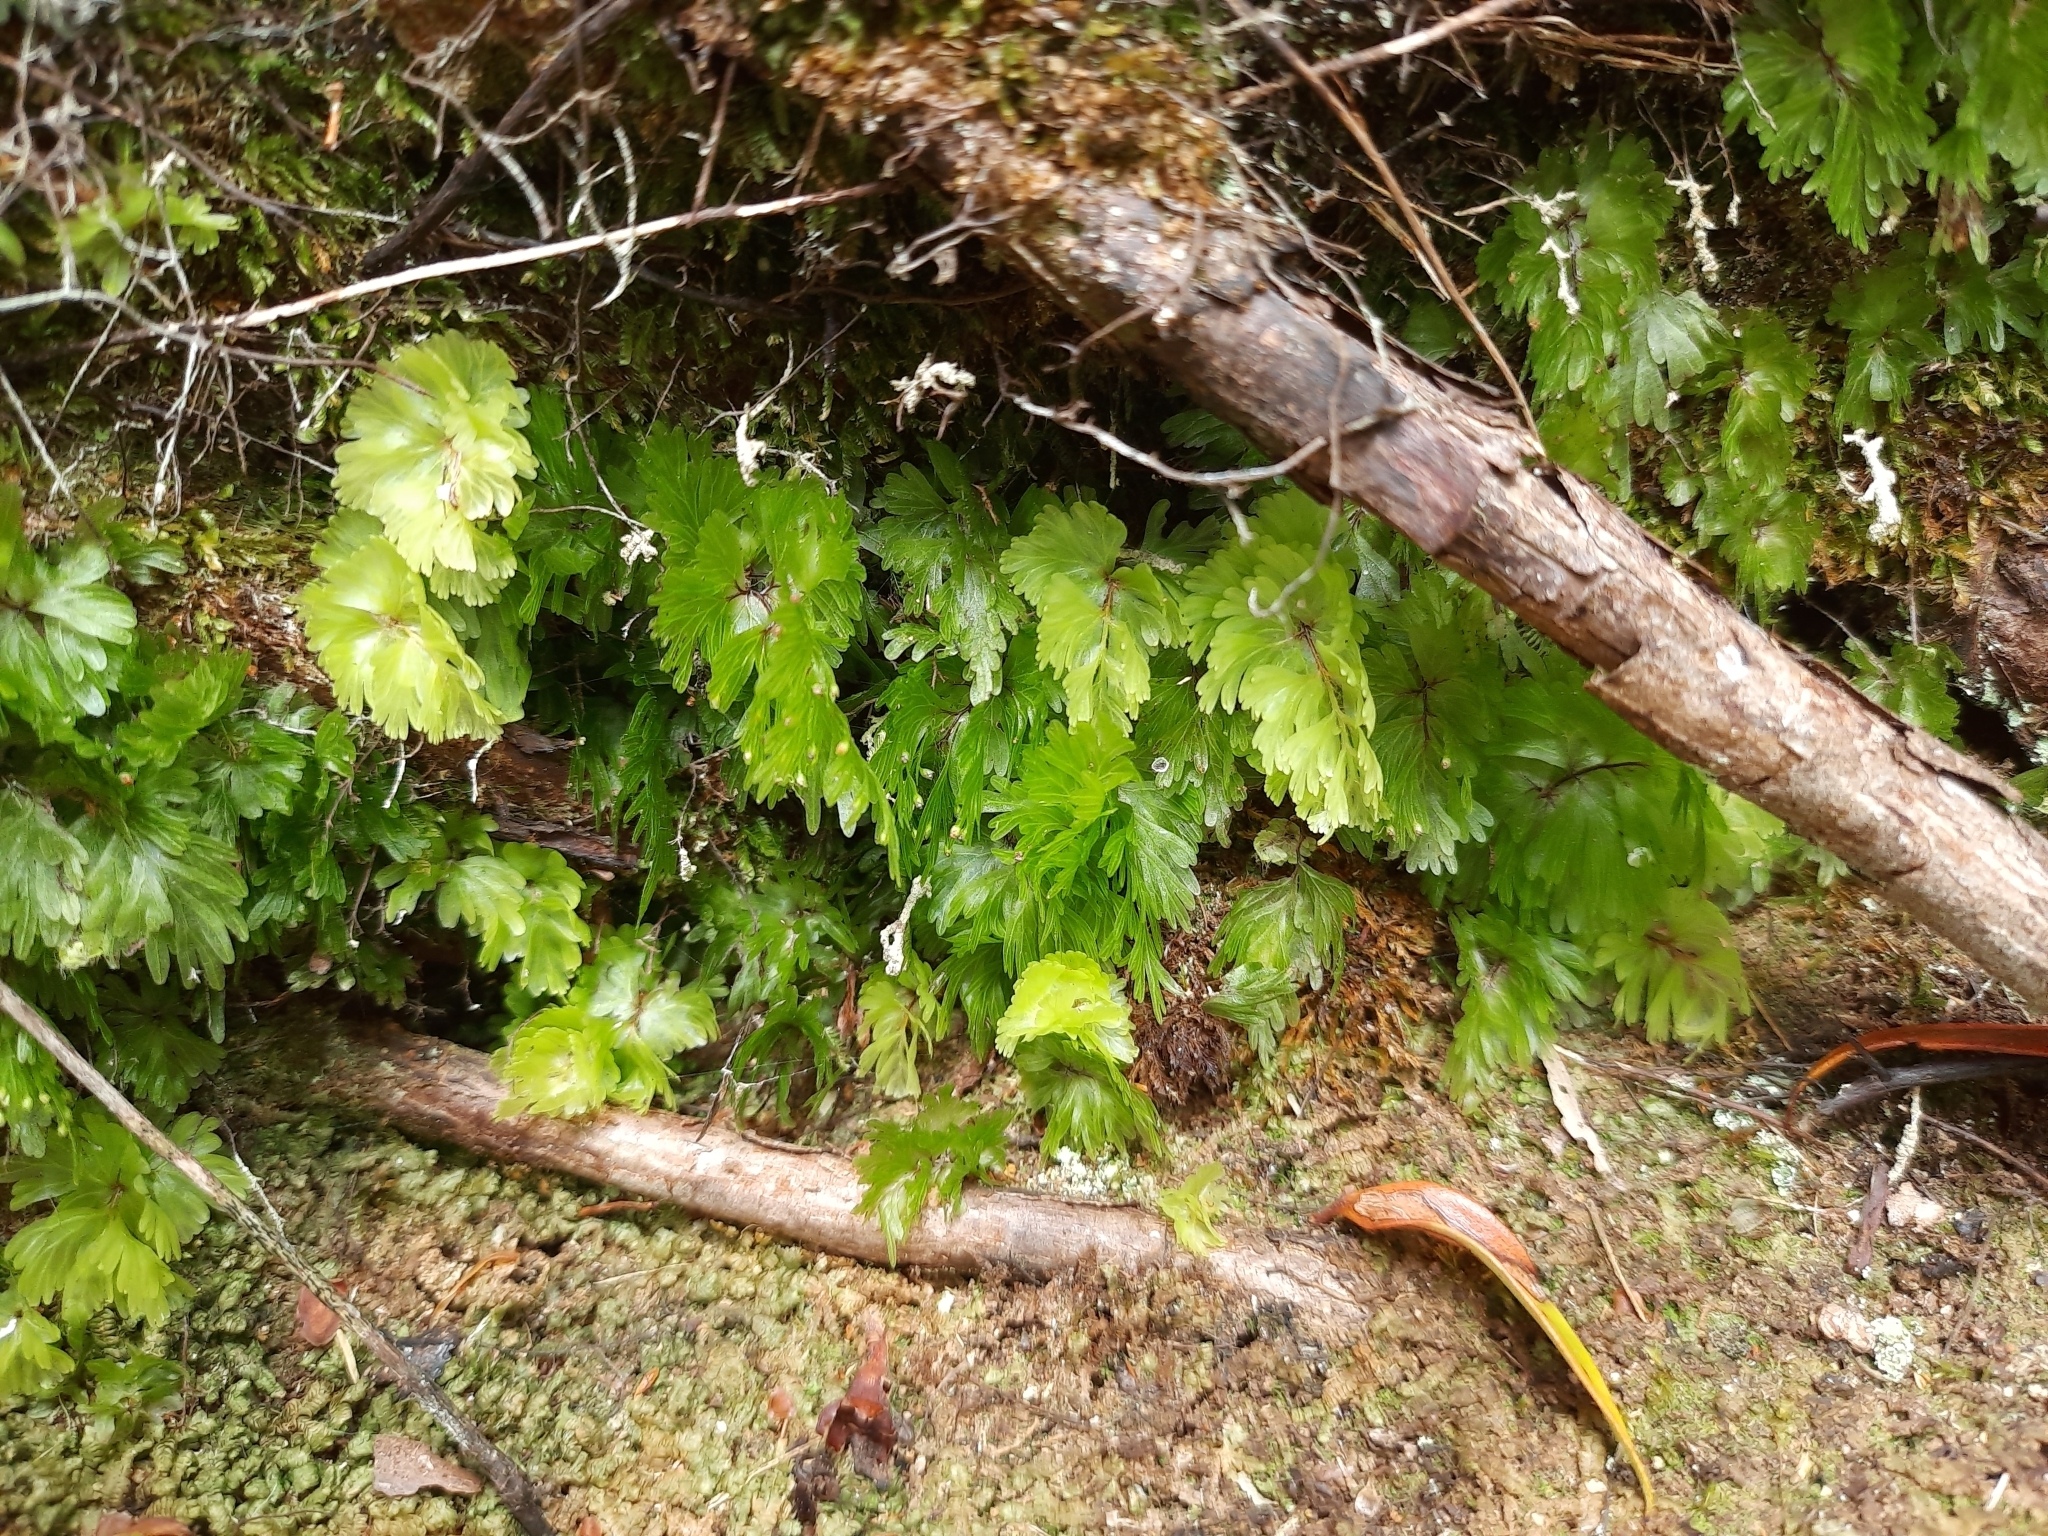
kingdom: Plantae
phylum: Tracheophyta
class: Polypodiopsida
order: Hymenophyllales
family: Hymenophyllaceae
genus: Hymenophyllum
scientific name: Hymenophyllum flabellatum
